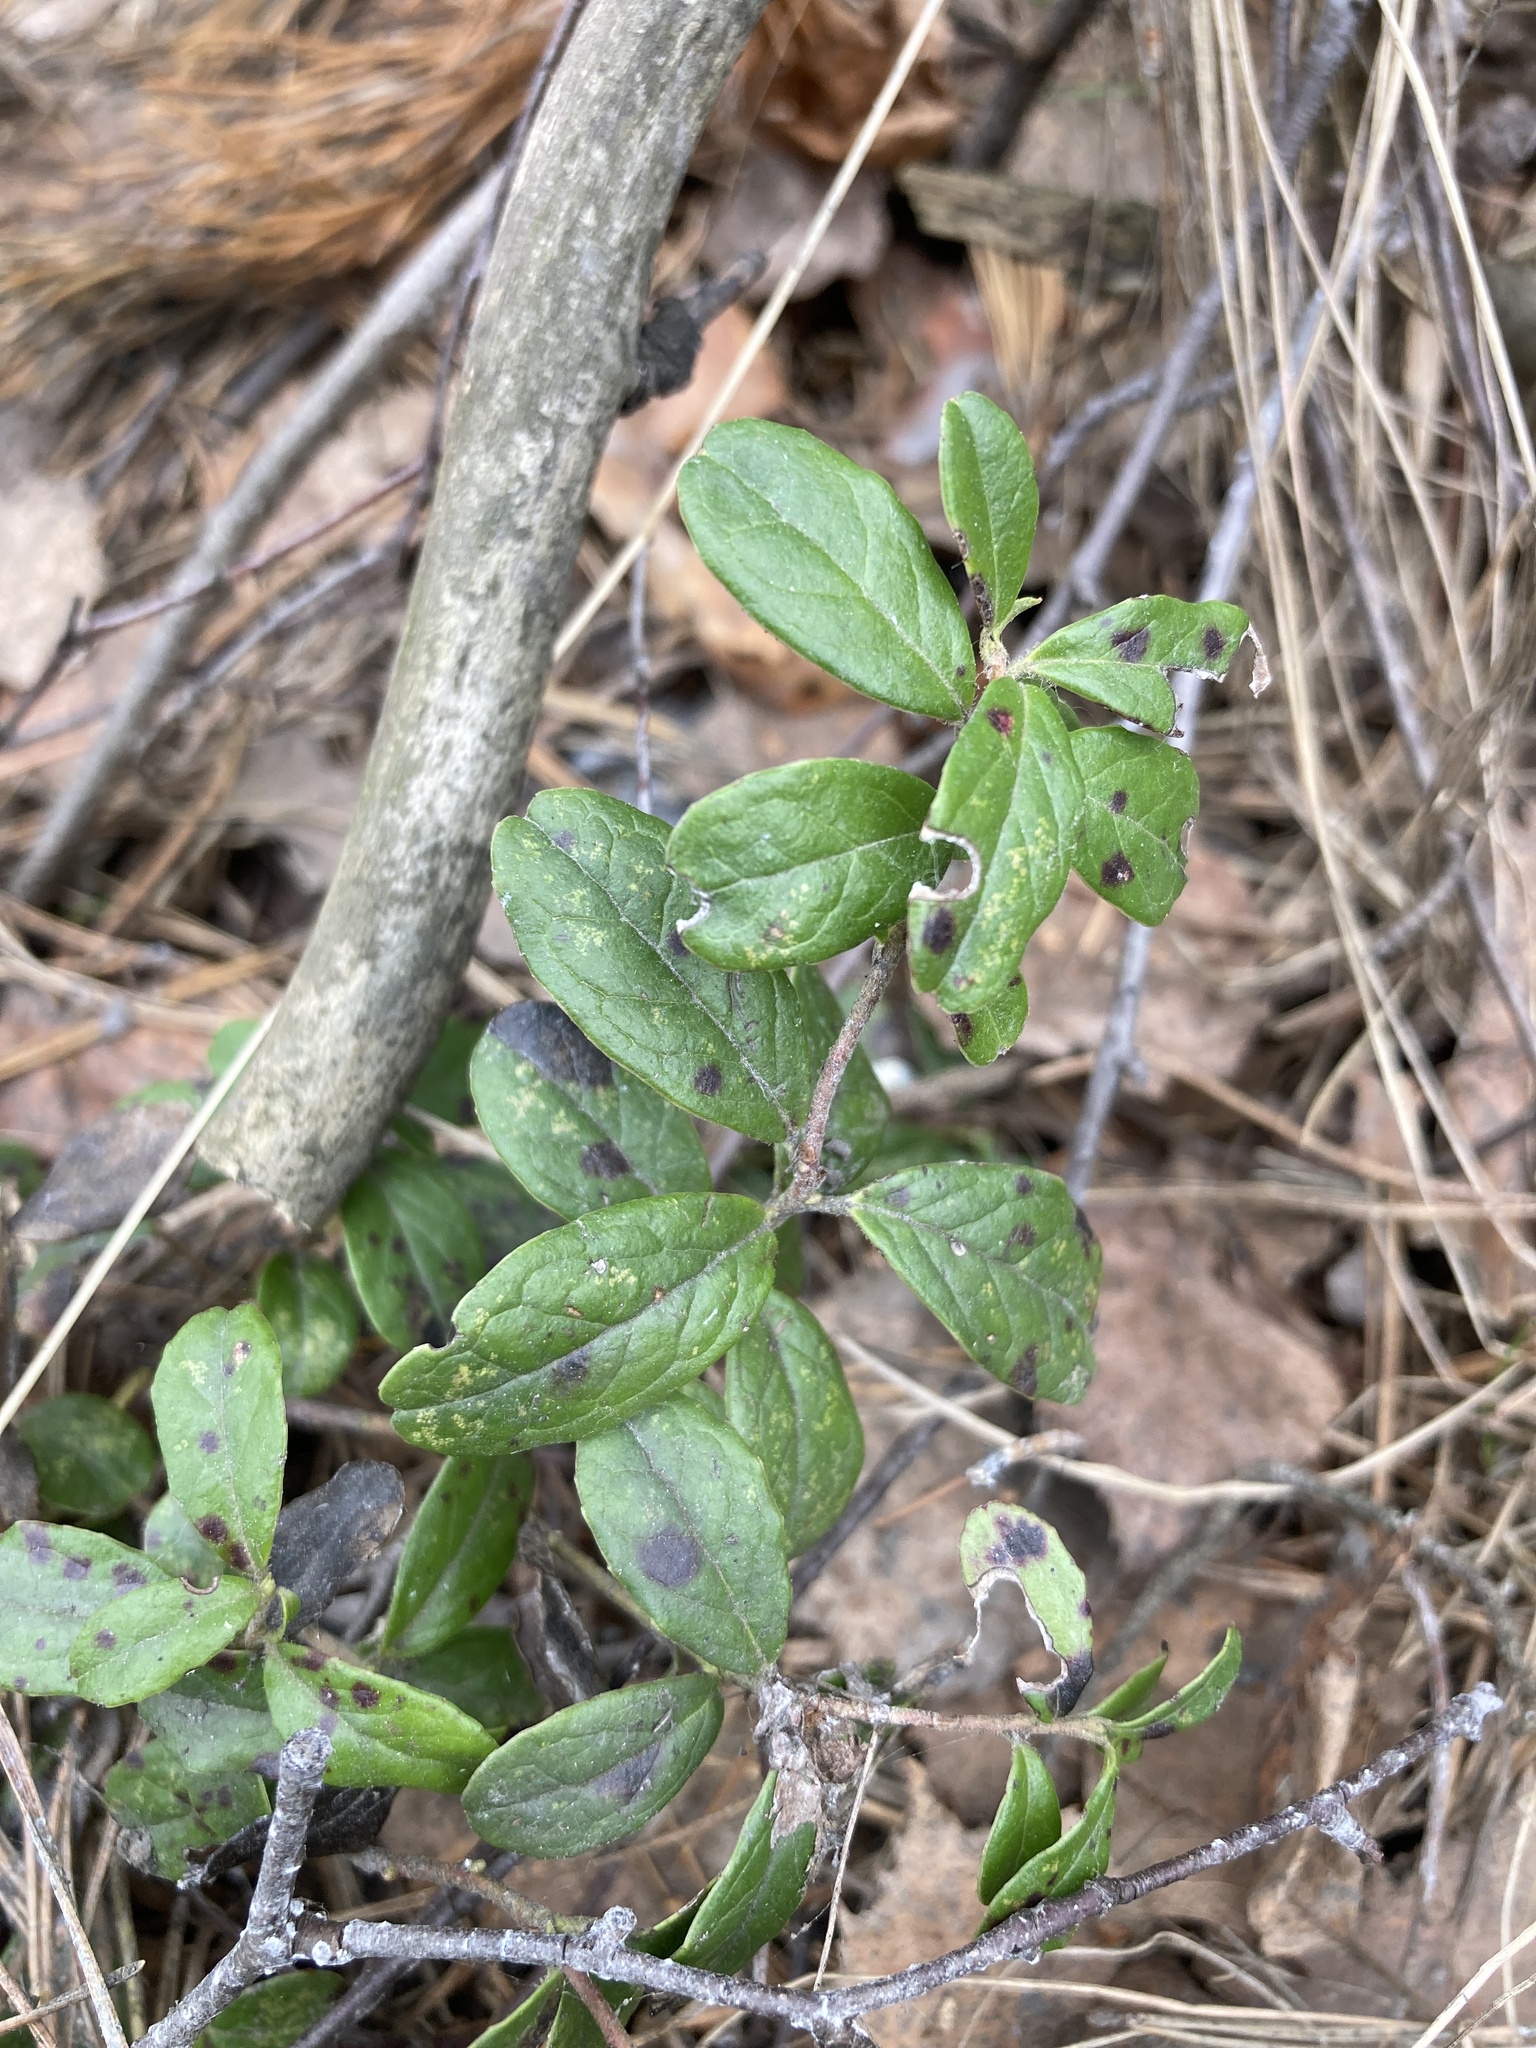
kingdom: Plantae
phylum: Tracheophyta
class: Magnoliopsida
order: Ericales
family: Ericaceae
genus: Vaccinium
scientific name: Vaccinium vitis-idaea
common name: Cowberry
